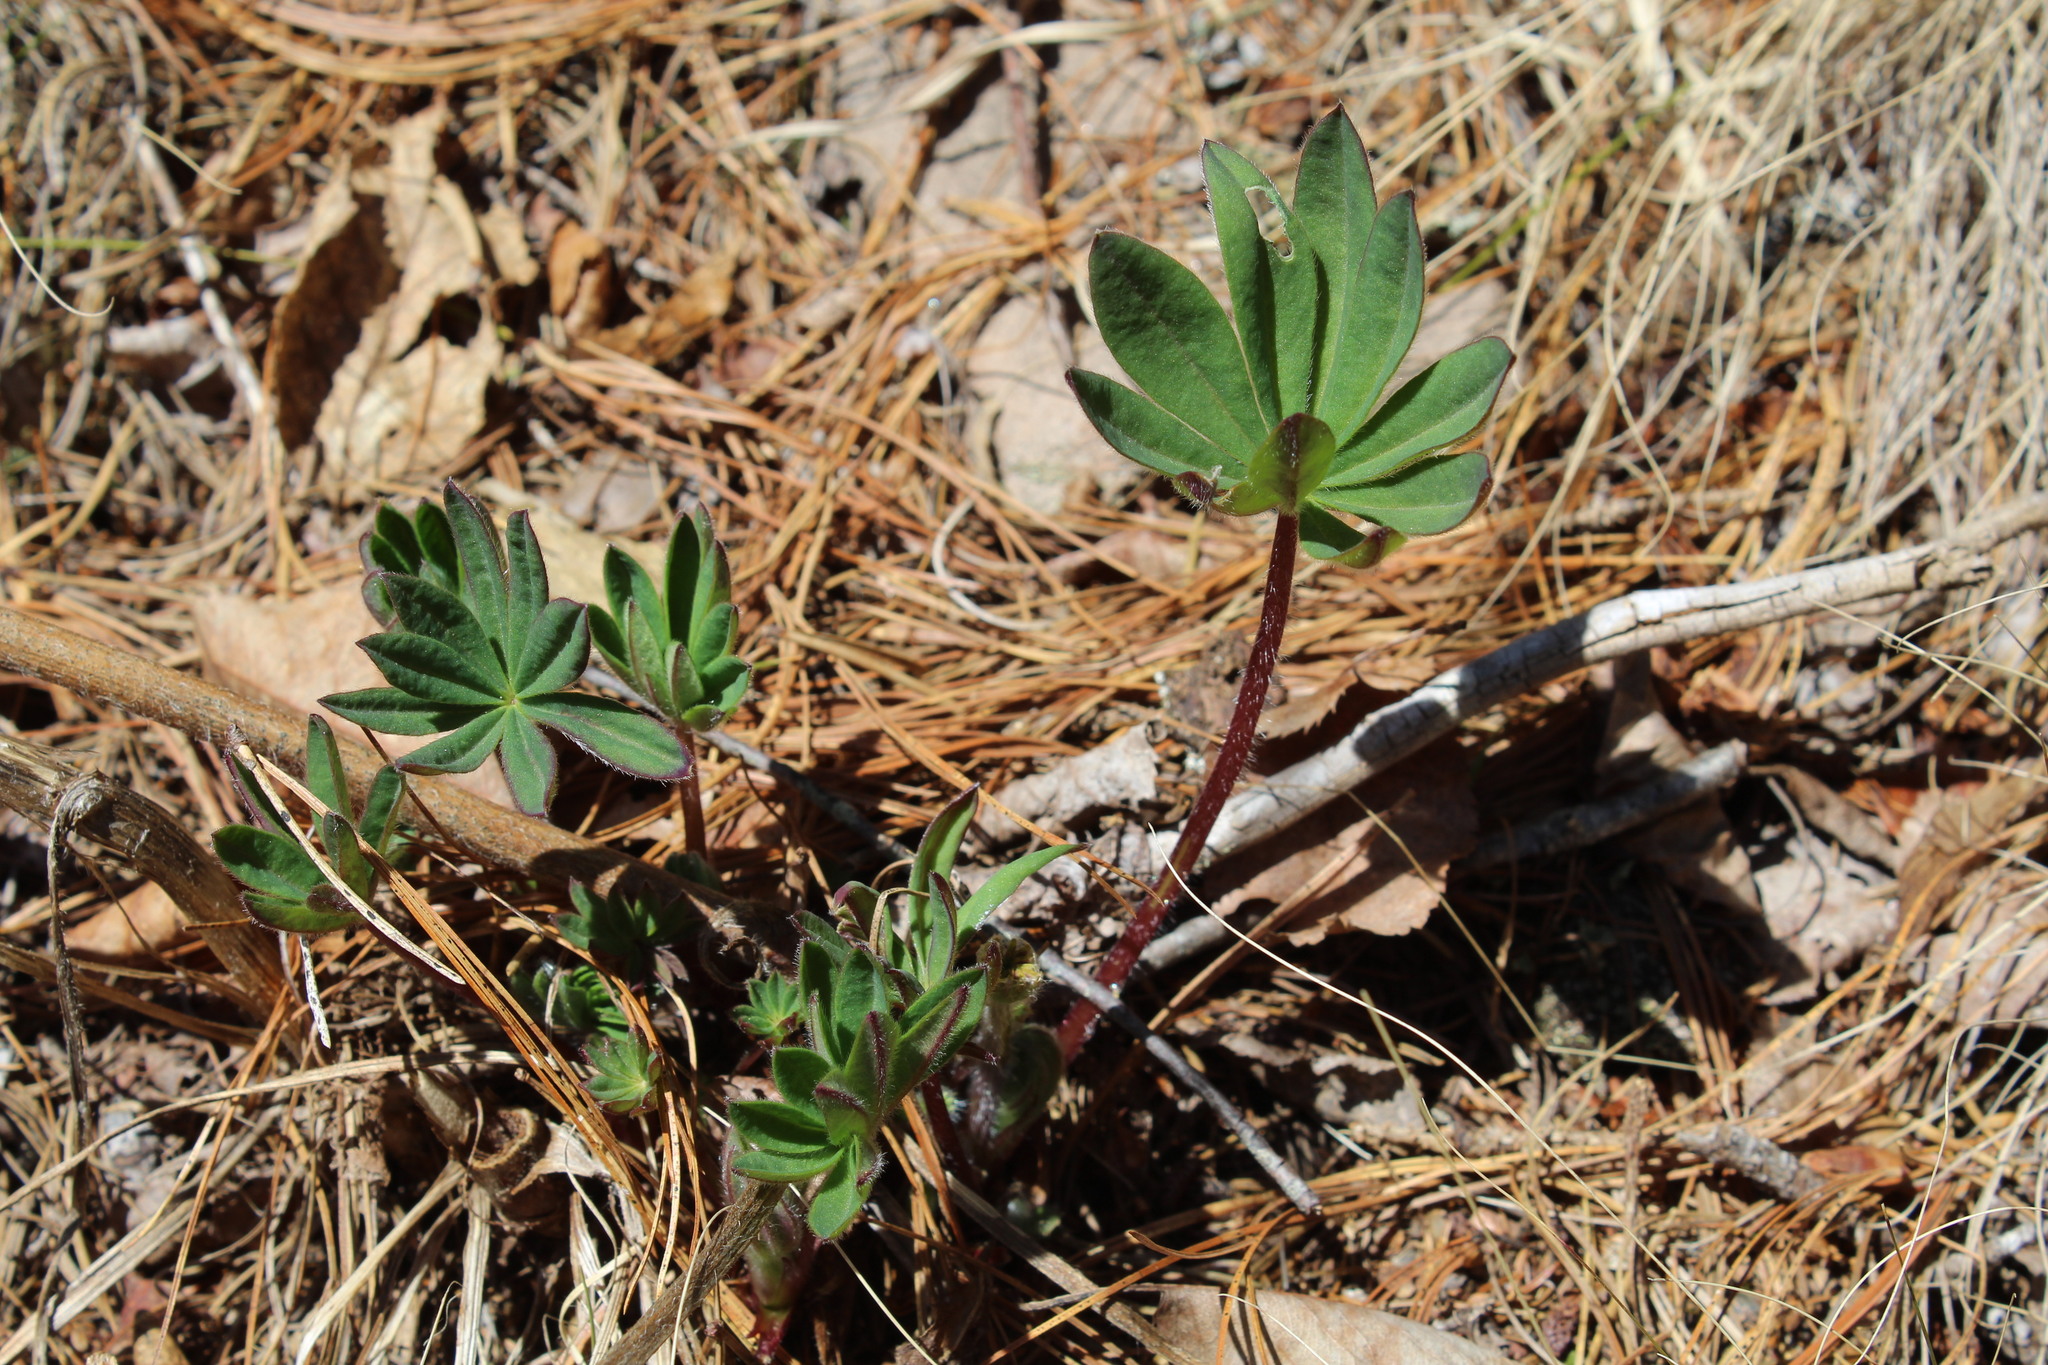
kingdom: Plantae
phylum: Tracheophyta
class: Magnoliopsida
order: Fabales
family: Fabaceae
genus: Lupinus
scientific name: Lupinus polyphyllus
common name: Garden lupin
